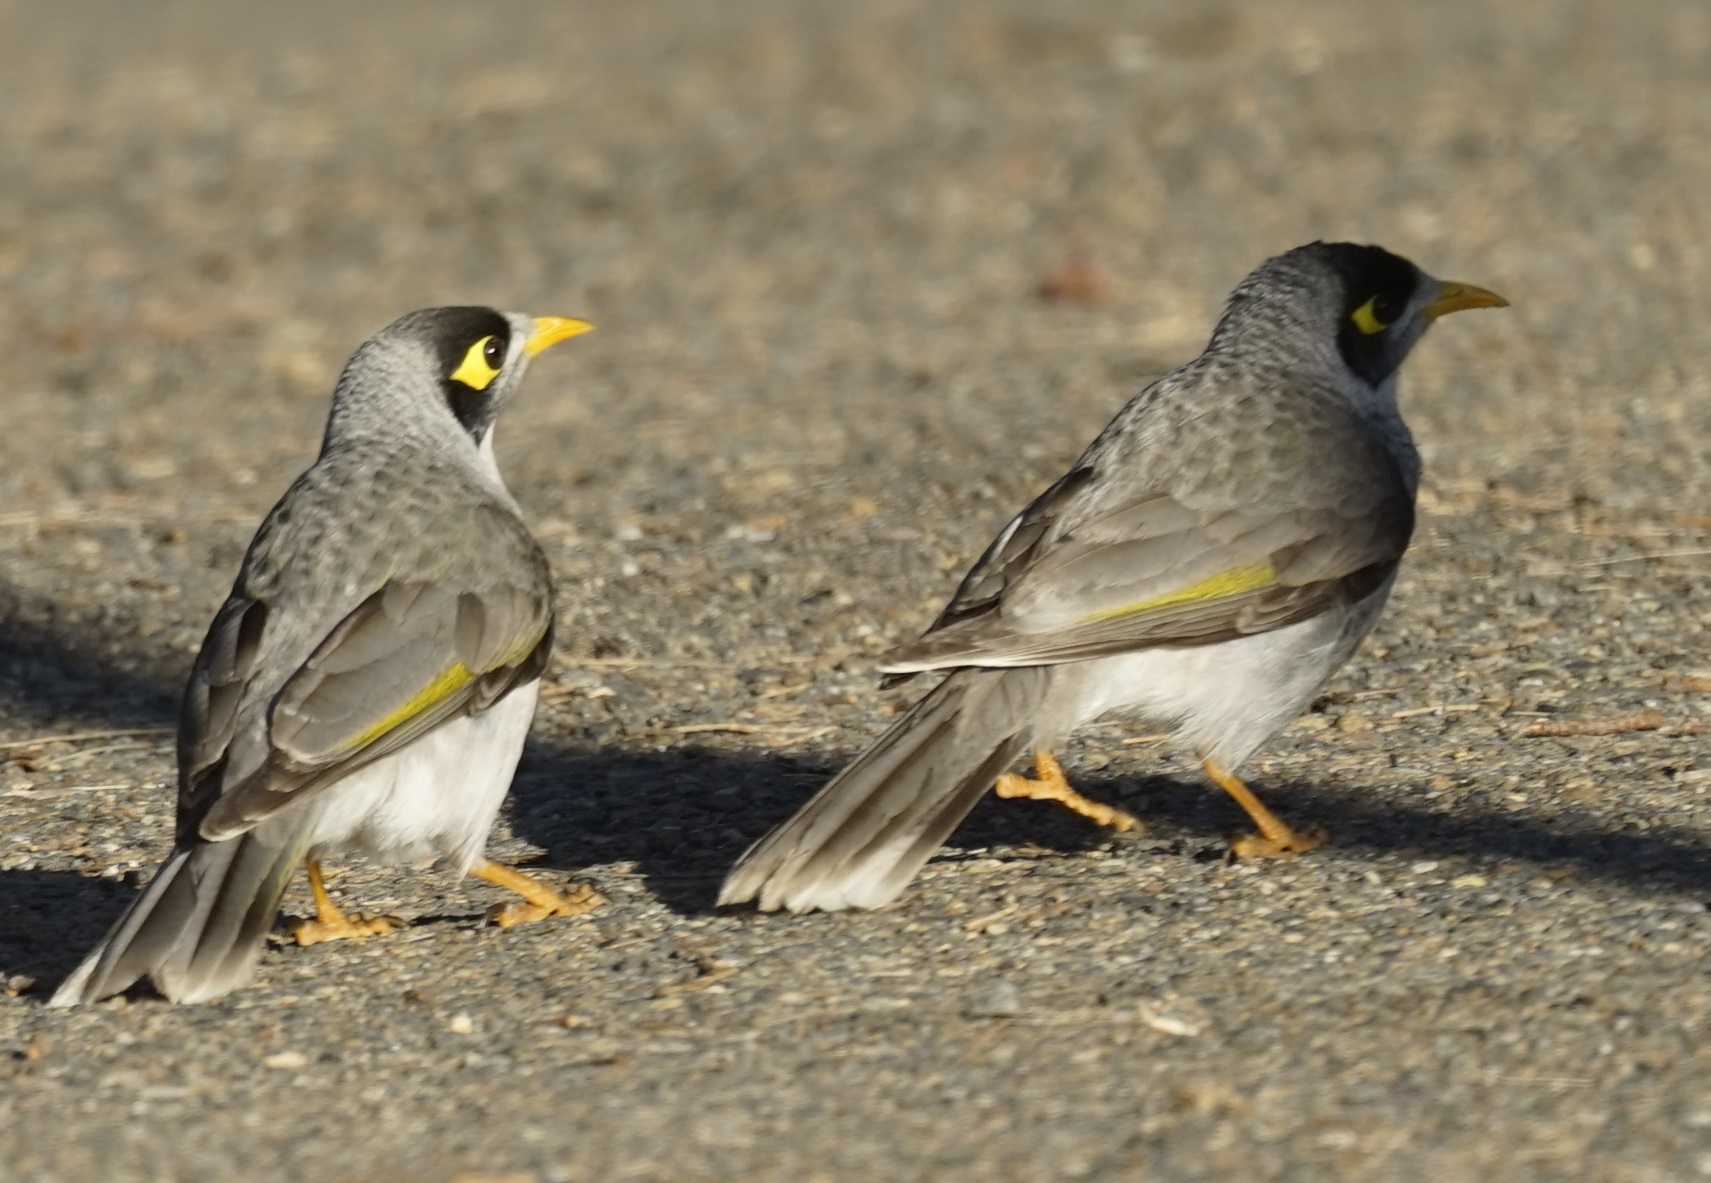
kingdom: Animalia
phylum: Chordata
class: Aves
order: Passeriformes
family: Meliphagidae
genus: Manorina
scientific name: Manorina melanocephala
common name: Noisy miner
